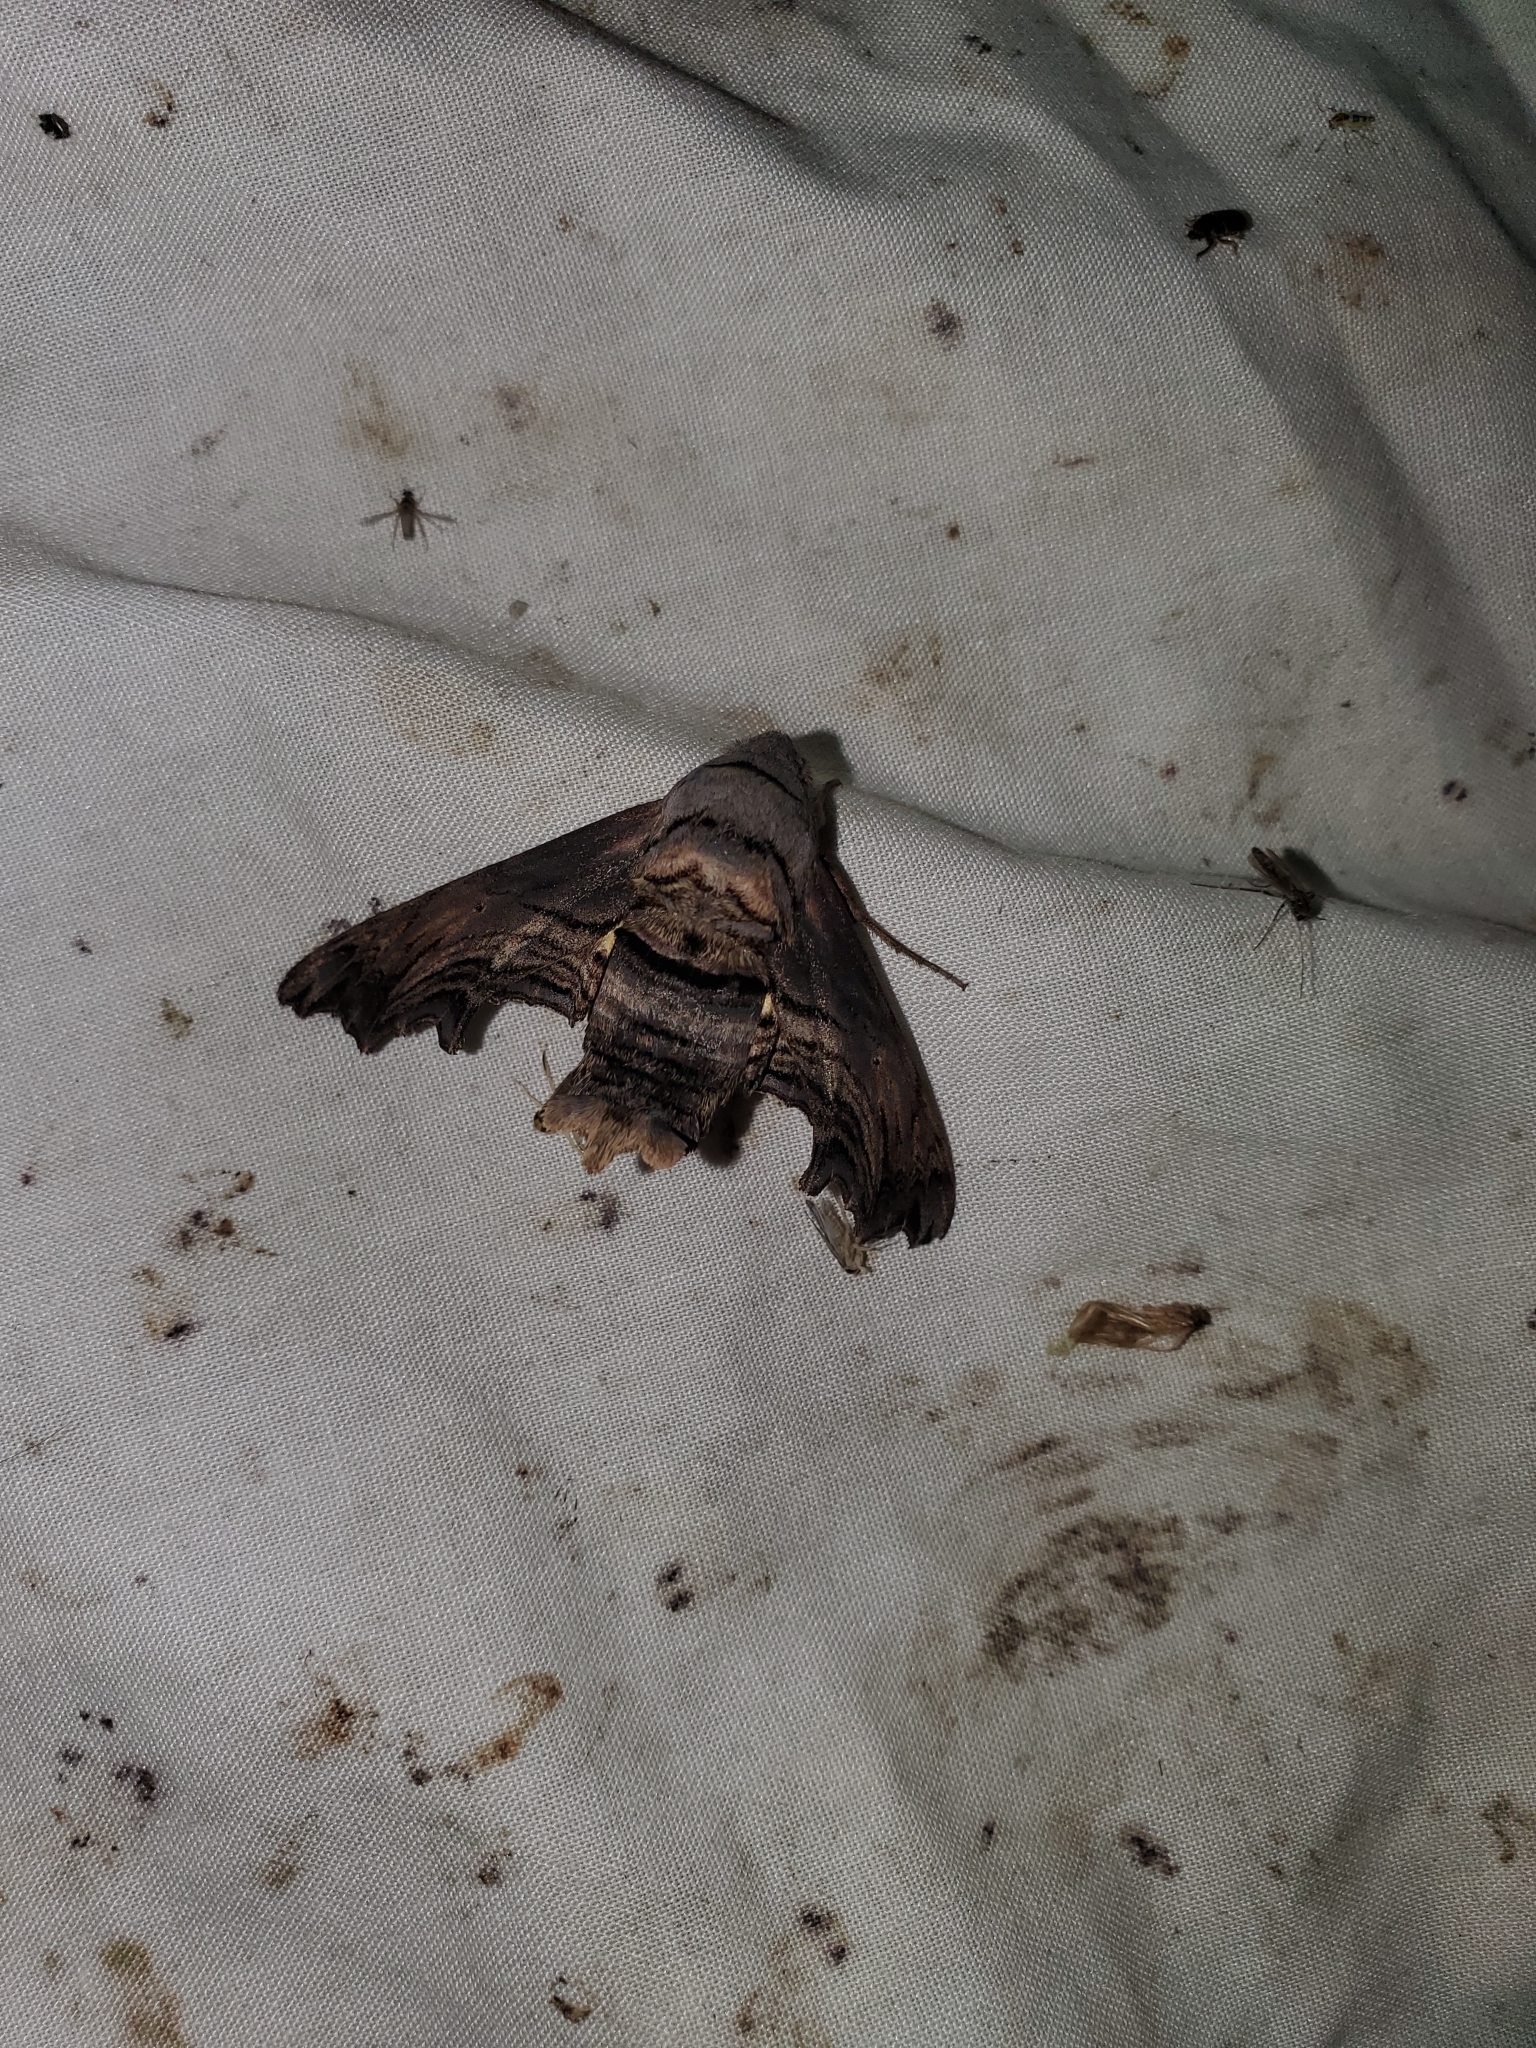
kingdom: Animalia
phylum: Arthropoda
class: Insecta
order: Lepidoptera
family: Sphingidae
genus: Sphecodina
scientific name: Sphecodina abbottii
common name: Abbott's sphinx
